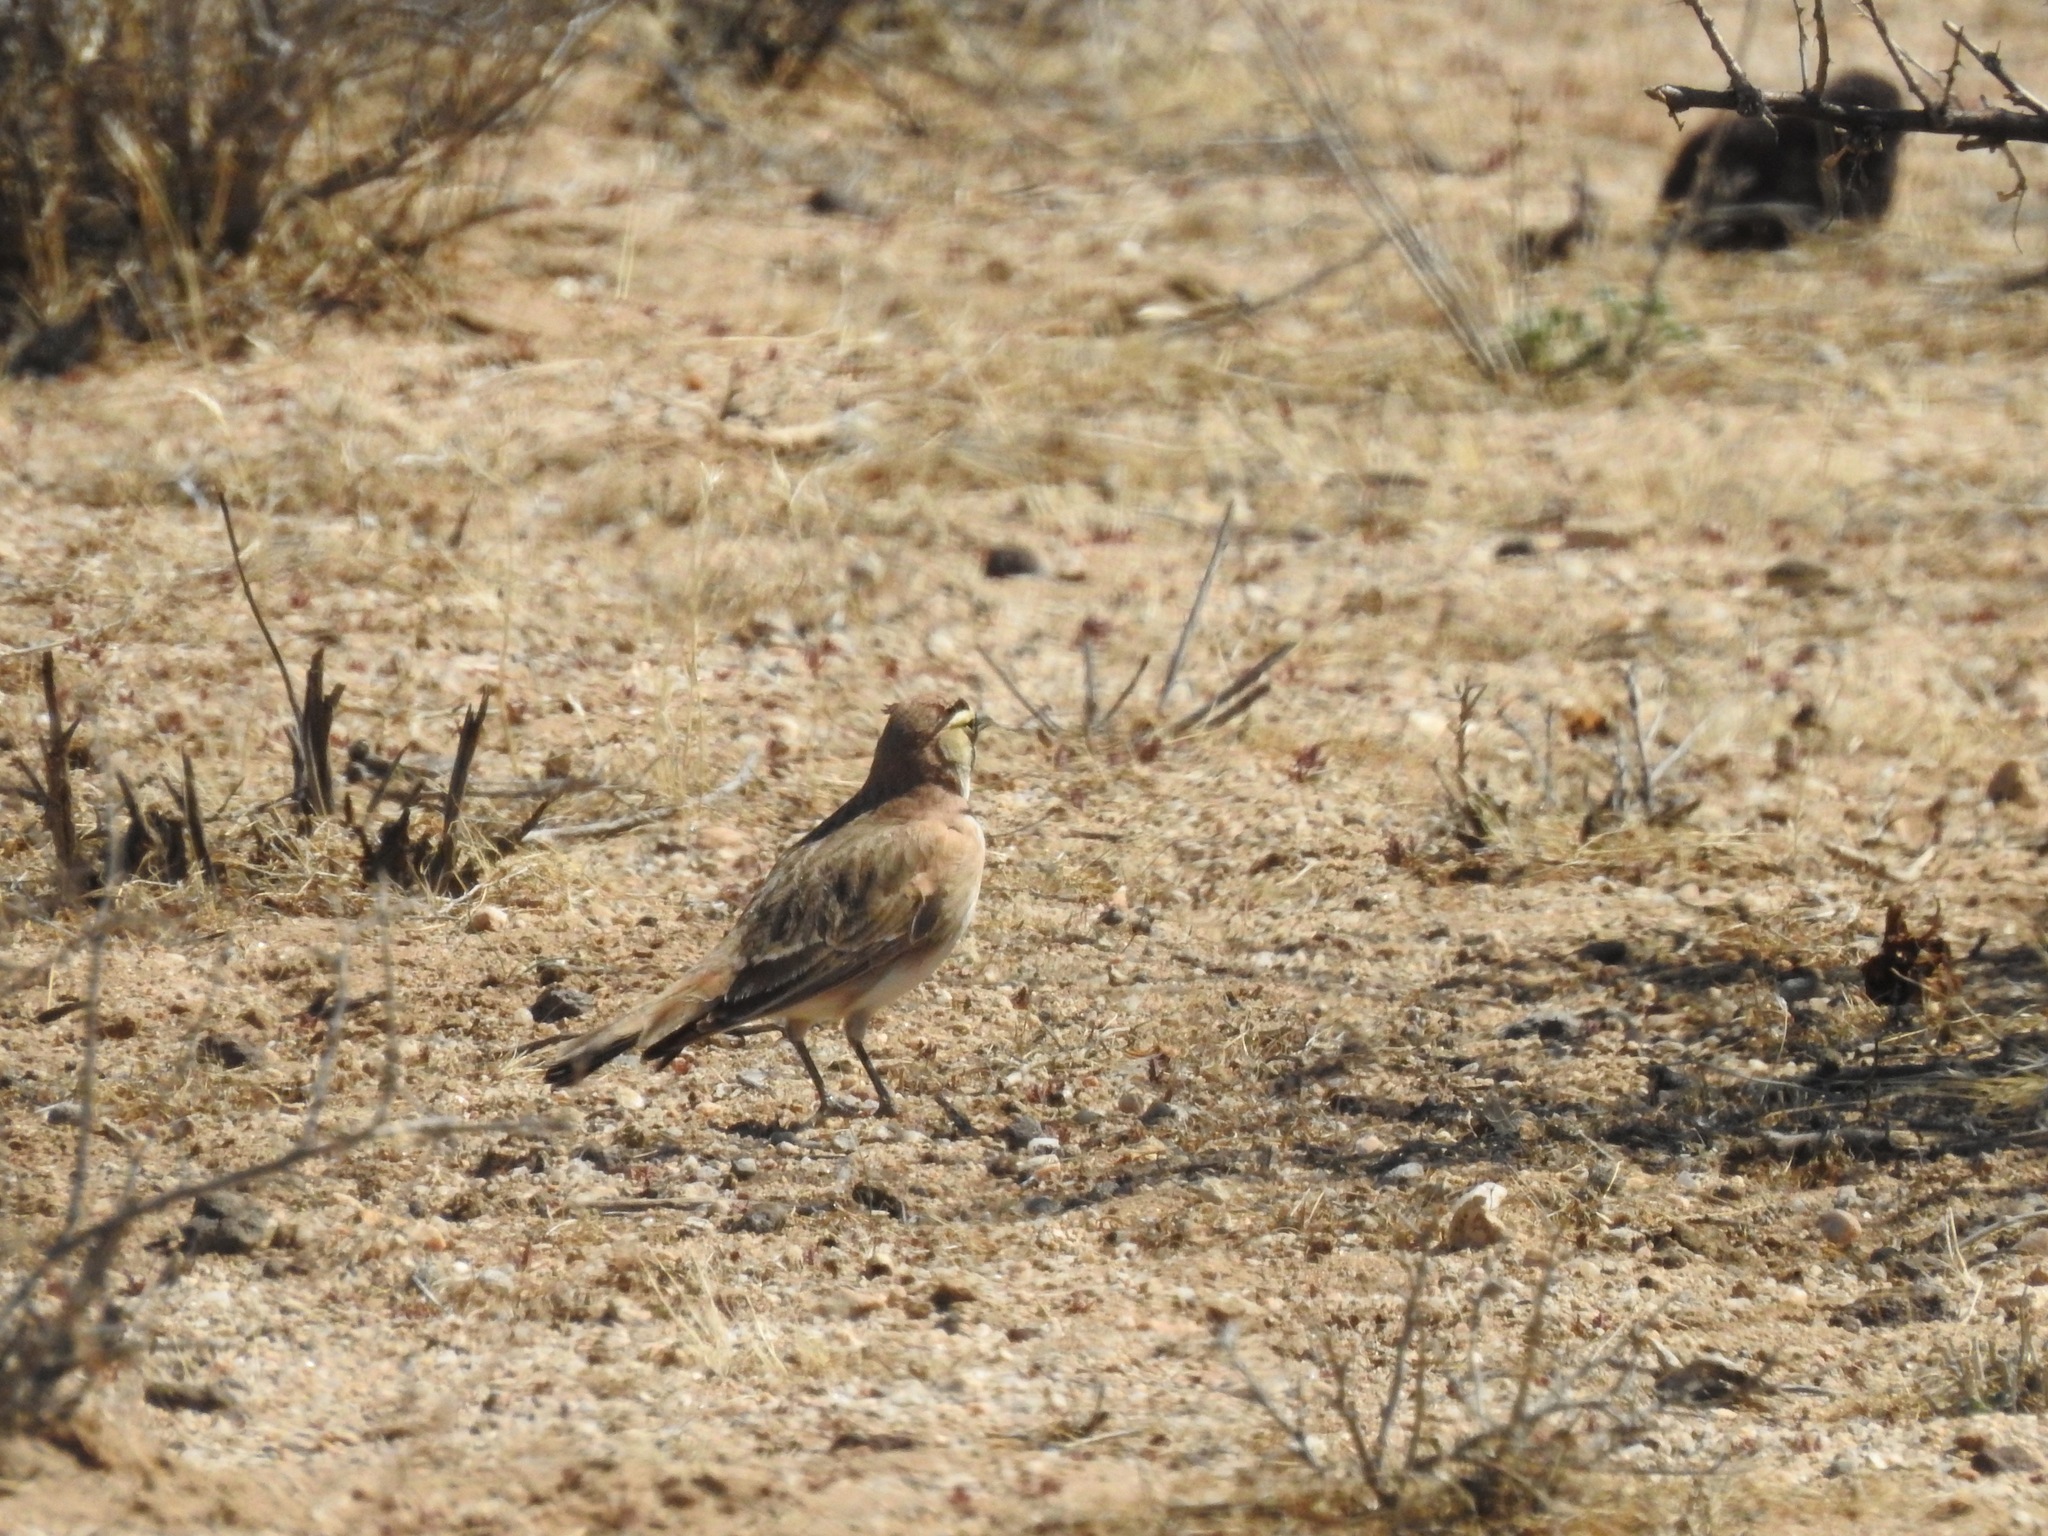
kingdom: Animalia
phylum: Chordata
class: Aves
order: Passeriformes
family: Alaudidae
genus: Eremophila
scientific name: Eremophila alpestris
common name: Horned lark
